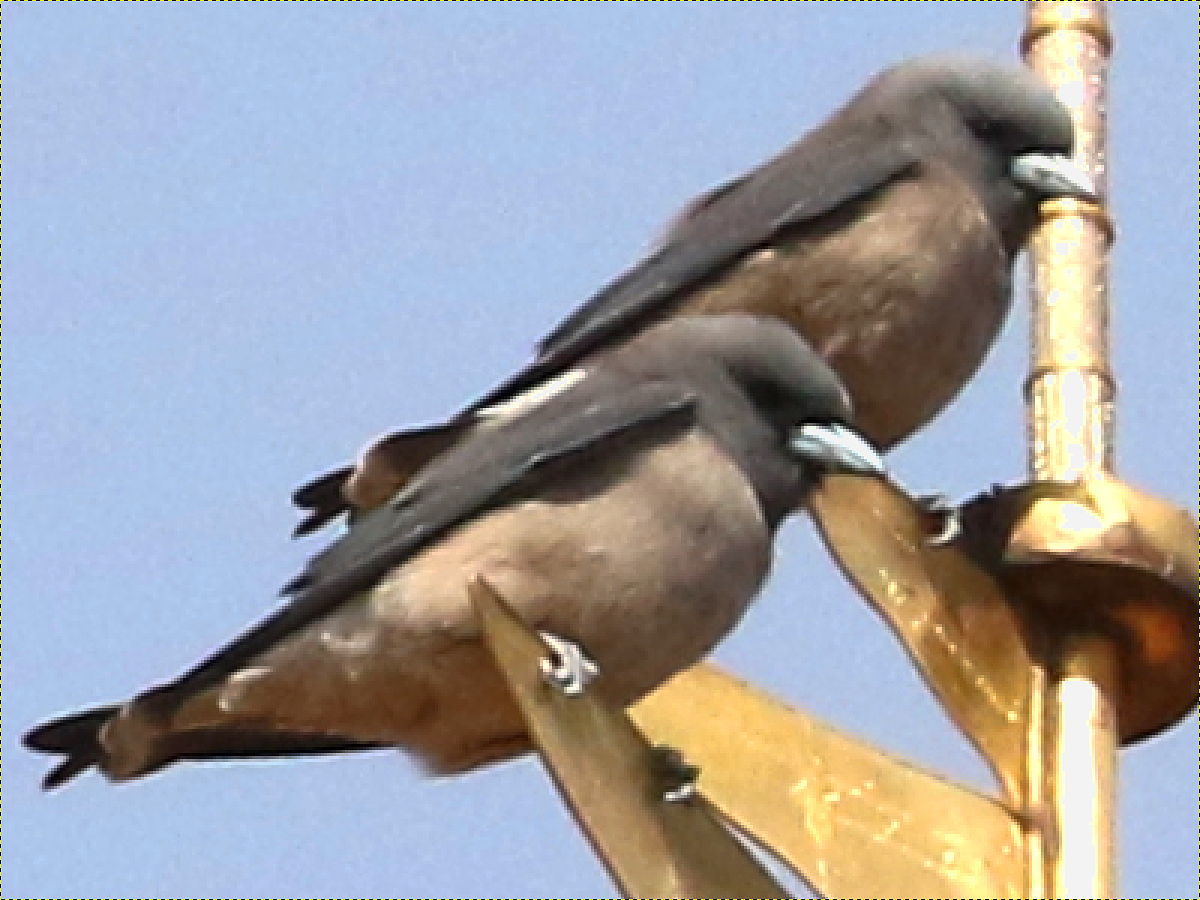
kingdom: Animalia
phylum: Chordata
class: Aves
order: Passeriformes
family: Artamidae
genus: Artamus
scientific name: Artamus fuscus
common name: Ashy woodswallow
